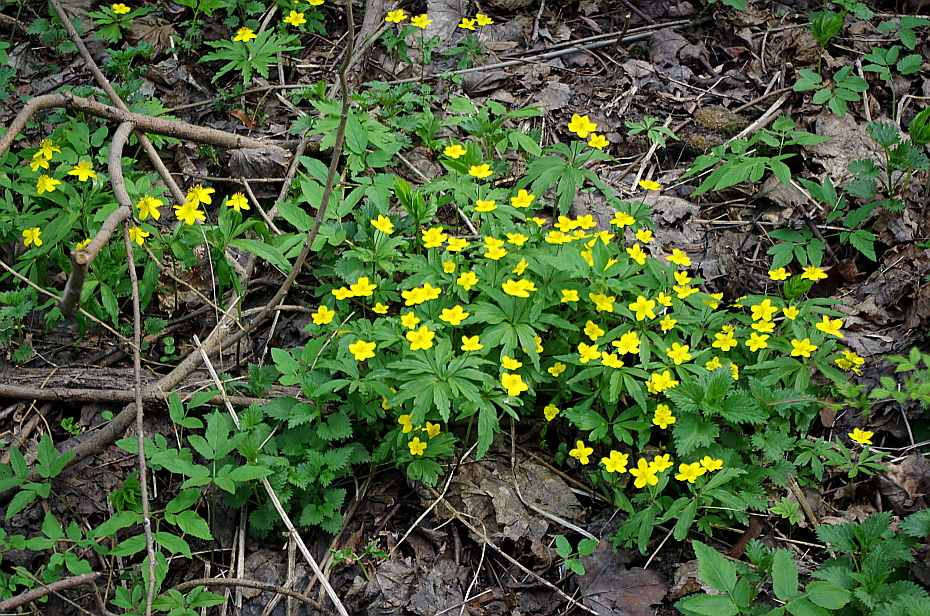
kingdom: Plantae
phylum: Tracheophyta
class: Magnoliopsida
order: Ranunculales
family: Ranunculaceae
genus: Anemone
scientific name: Anemone ranunculoides
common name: Yellow anemone
